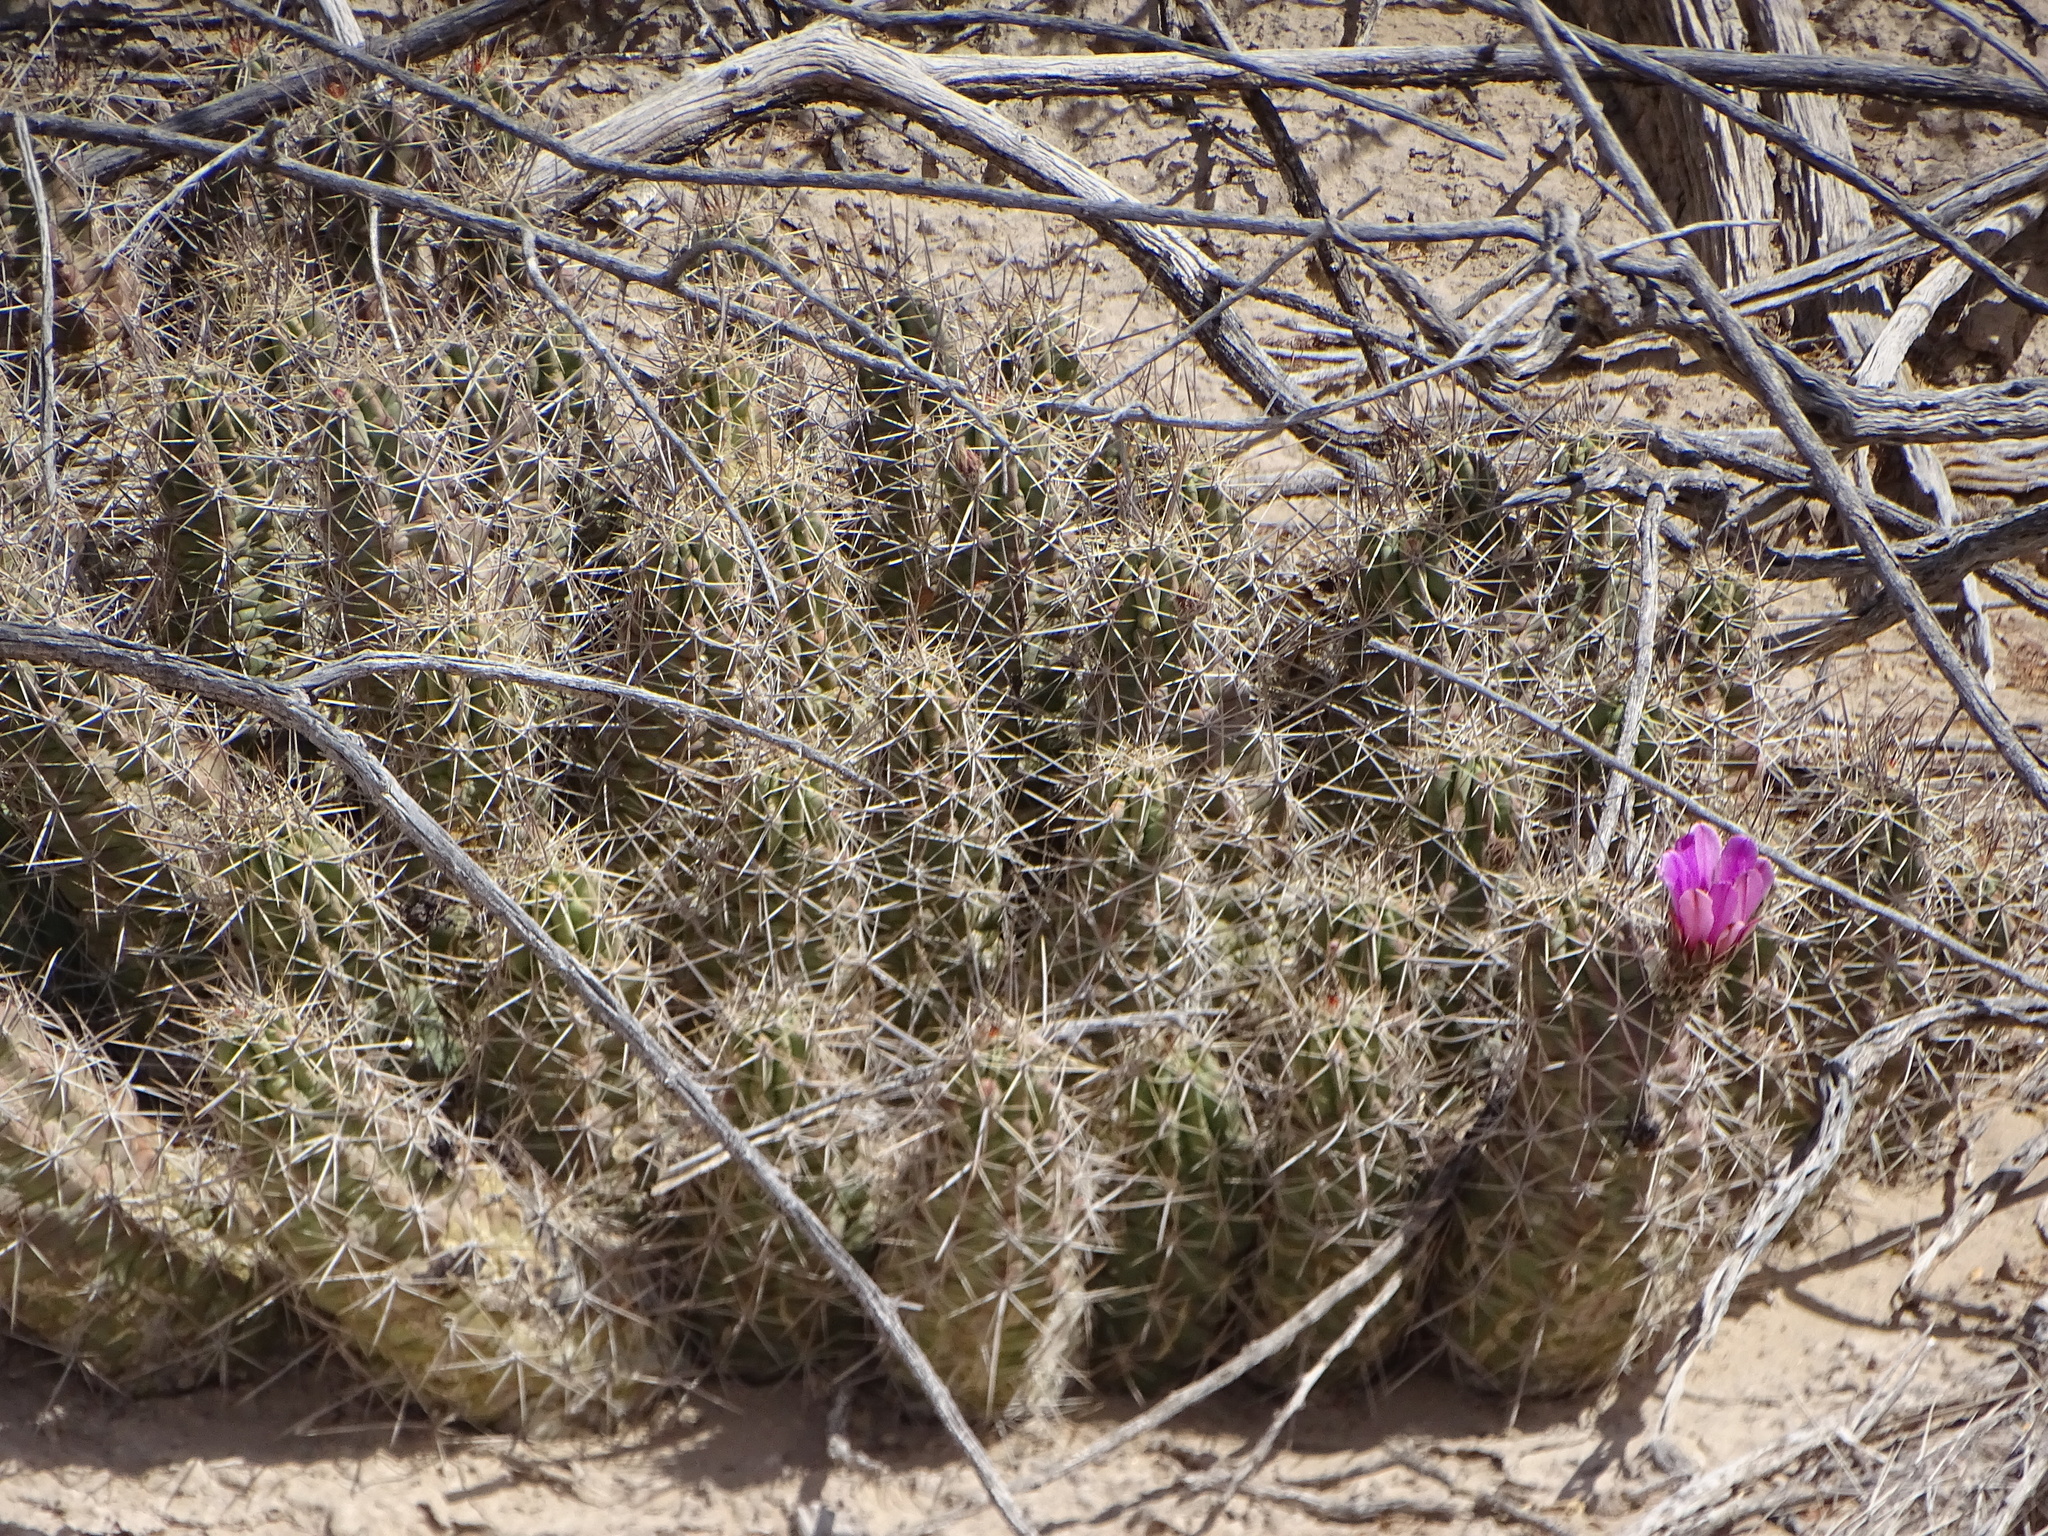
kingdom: Plantae
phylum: Tracheophyta
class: Magnoliopsida
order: Caryophyllales
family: Cactaceae
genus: Echinocereus
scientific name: Echinocereus enneacanthus
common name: Pitaya
